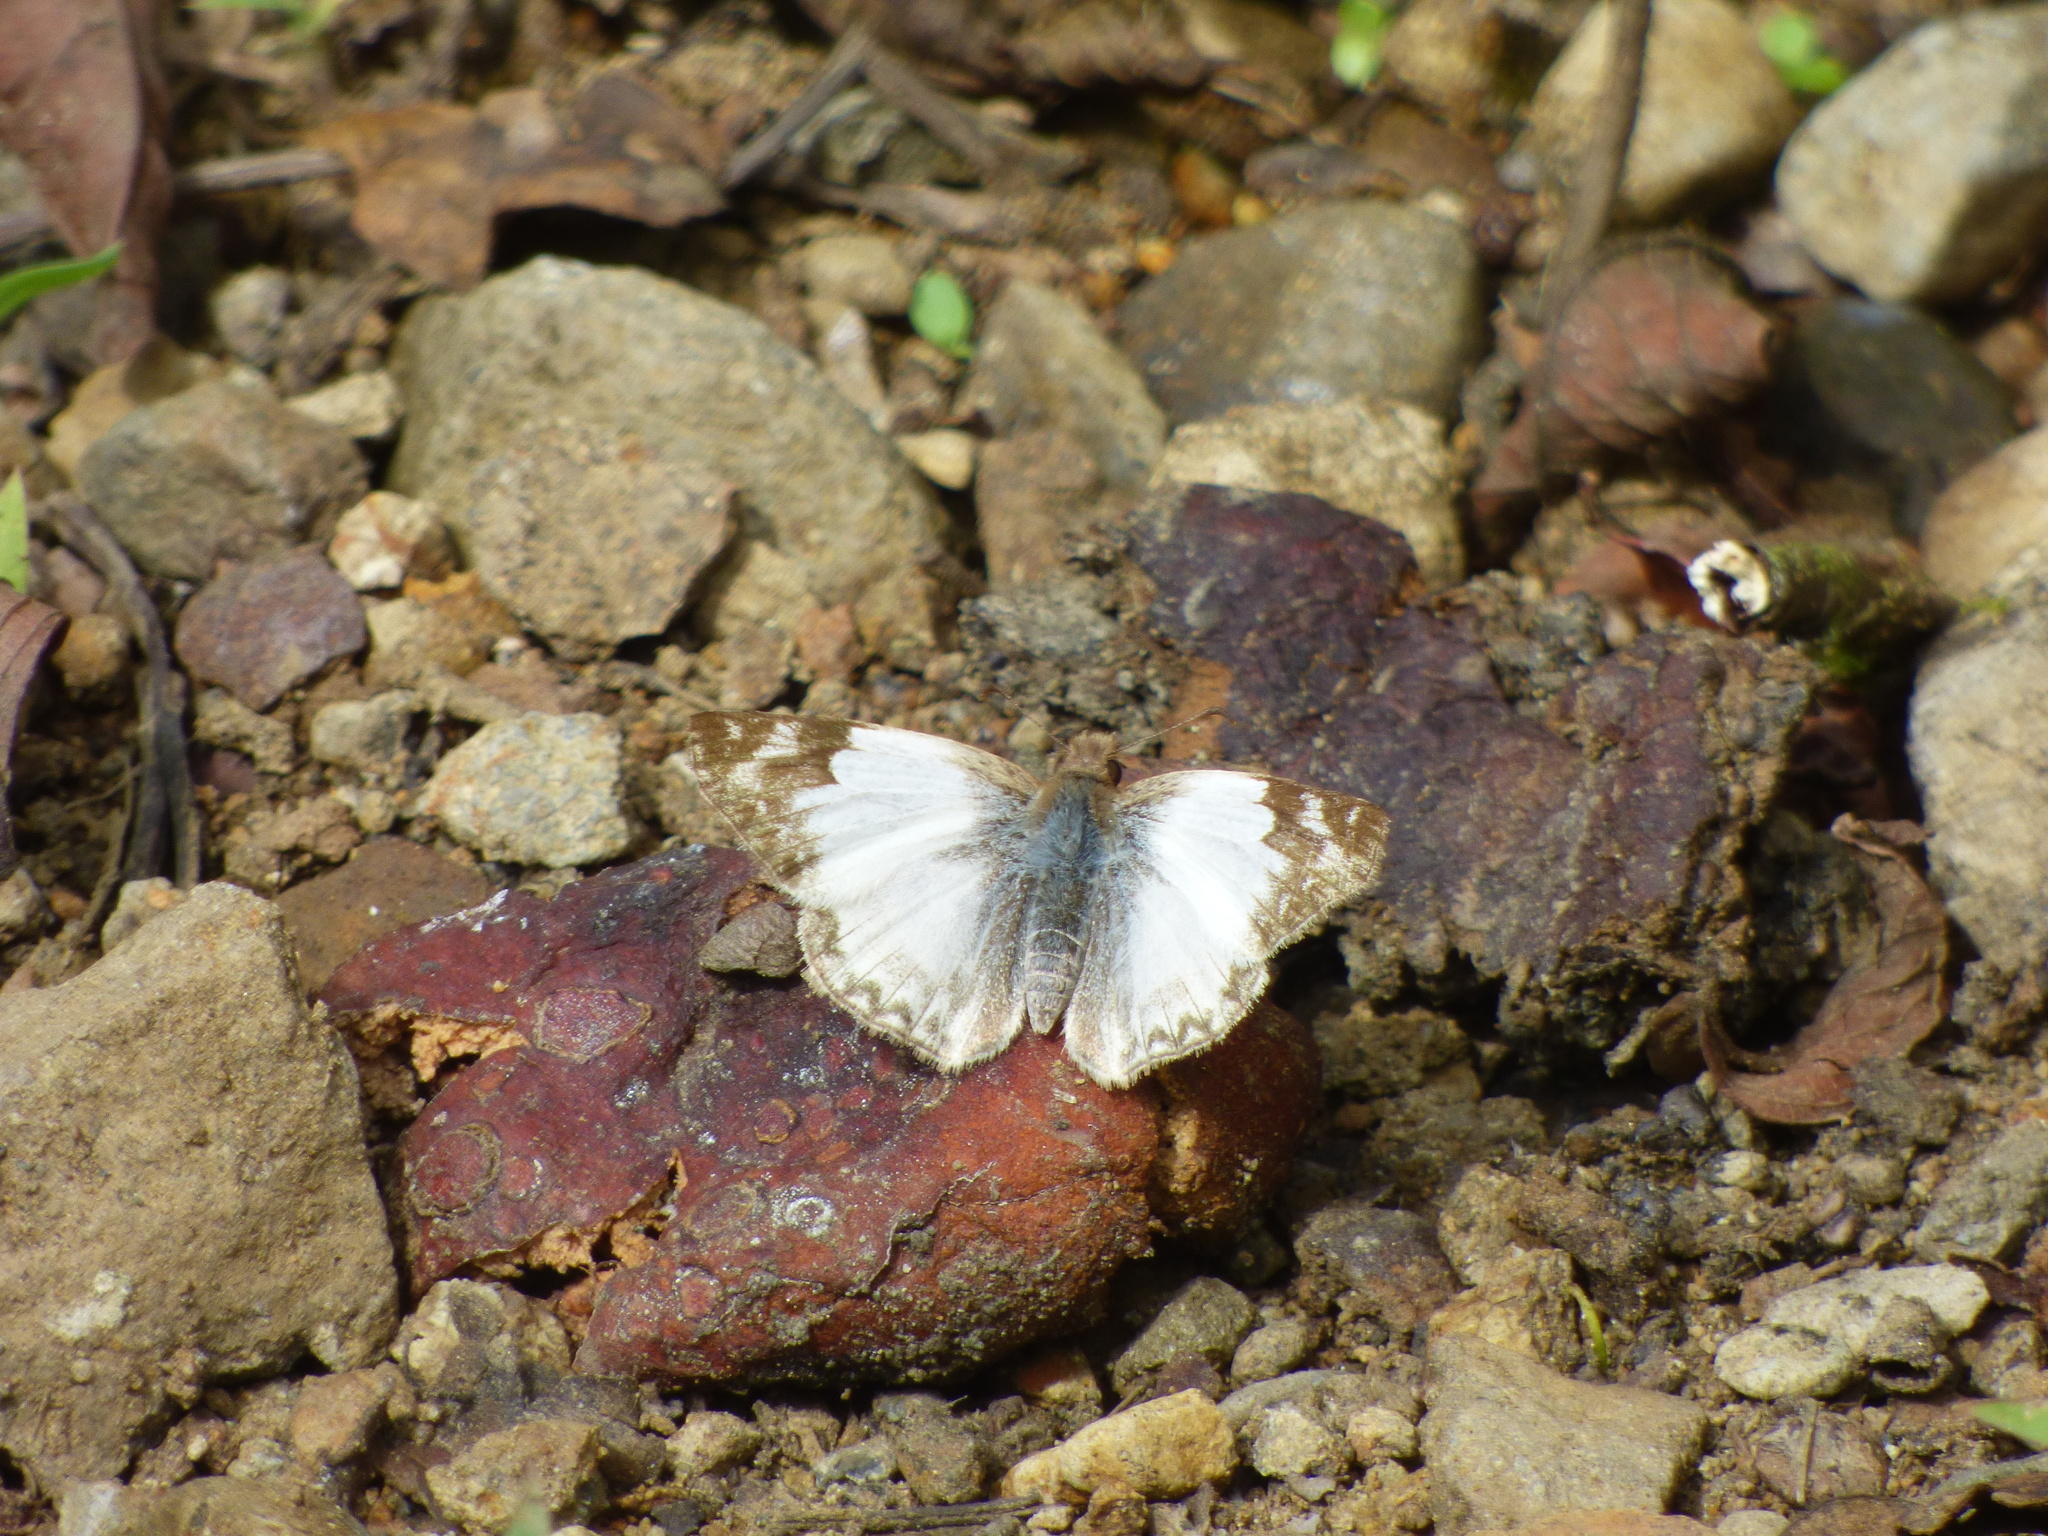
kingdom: Animalia
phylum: Arthropoda
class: Insecta
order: Lepidoptera
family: Hesperiidae
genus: Heliopetes
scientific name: Heliopetes laviana
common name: Laviana white-skipper
